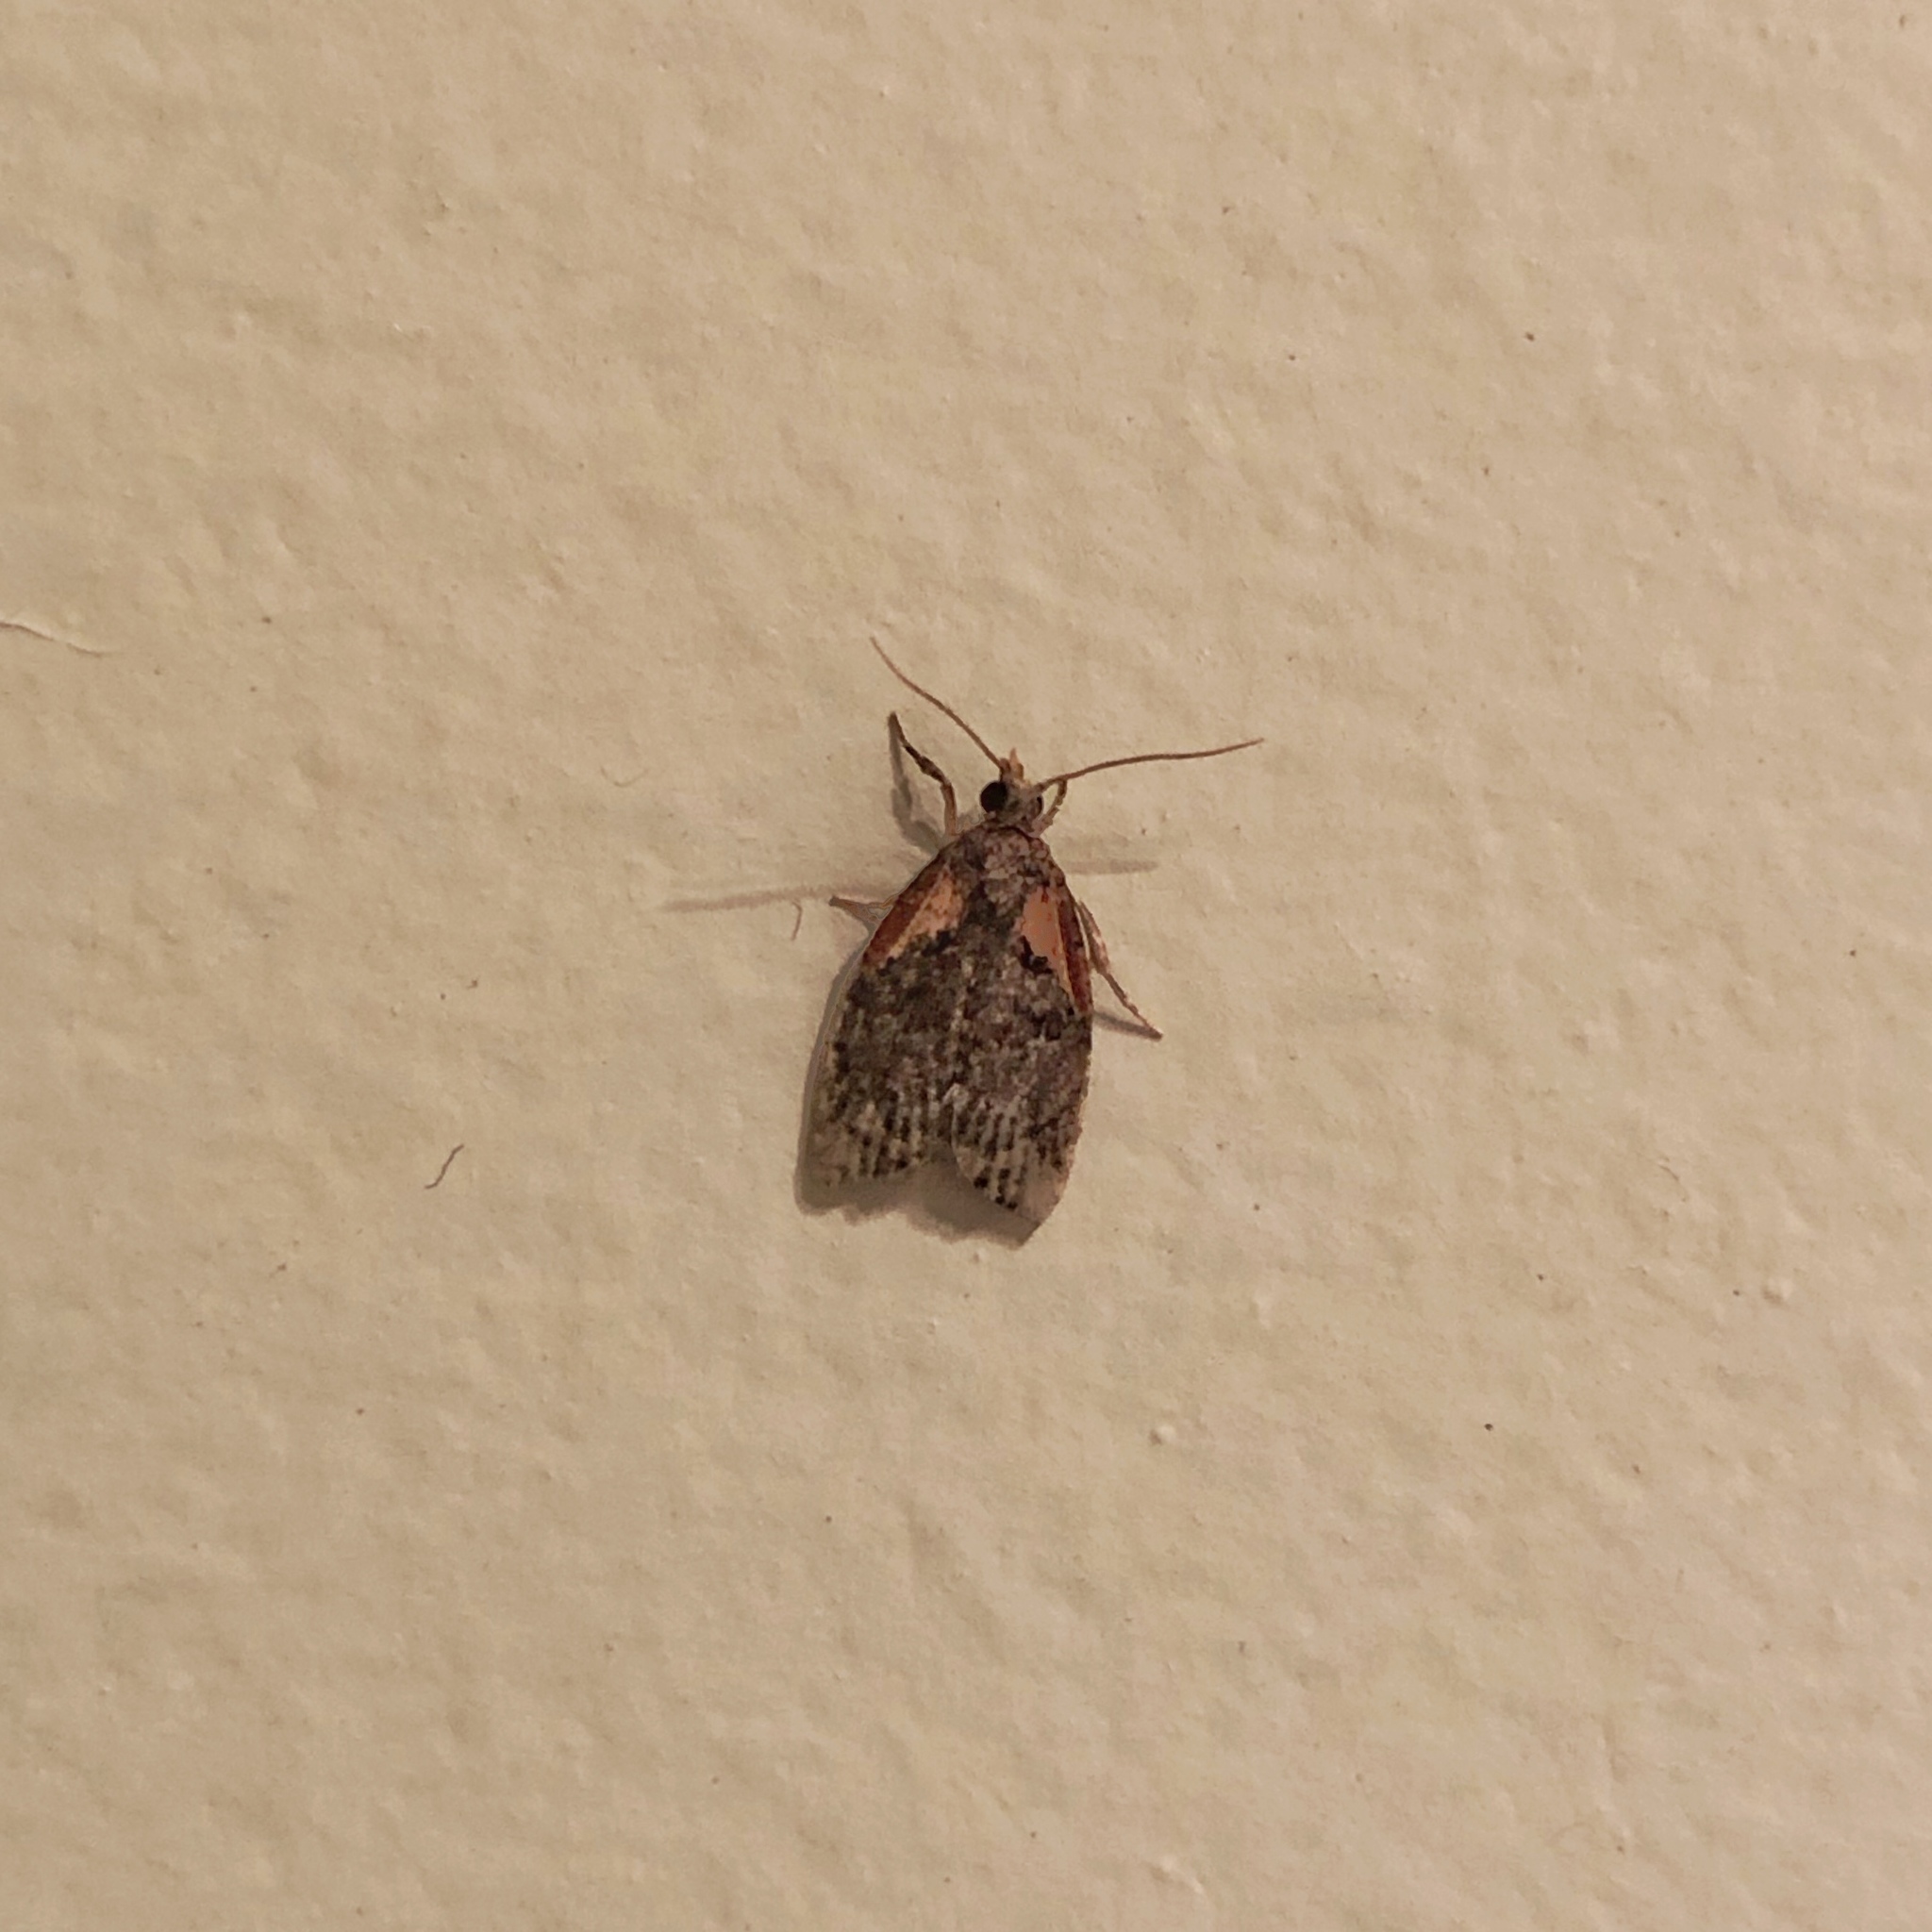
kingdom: Animalia
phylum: Arthropoda
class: Insecta
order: Lepidoptera
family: Tortricidae
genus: Capua
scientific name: Capua intractana
